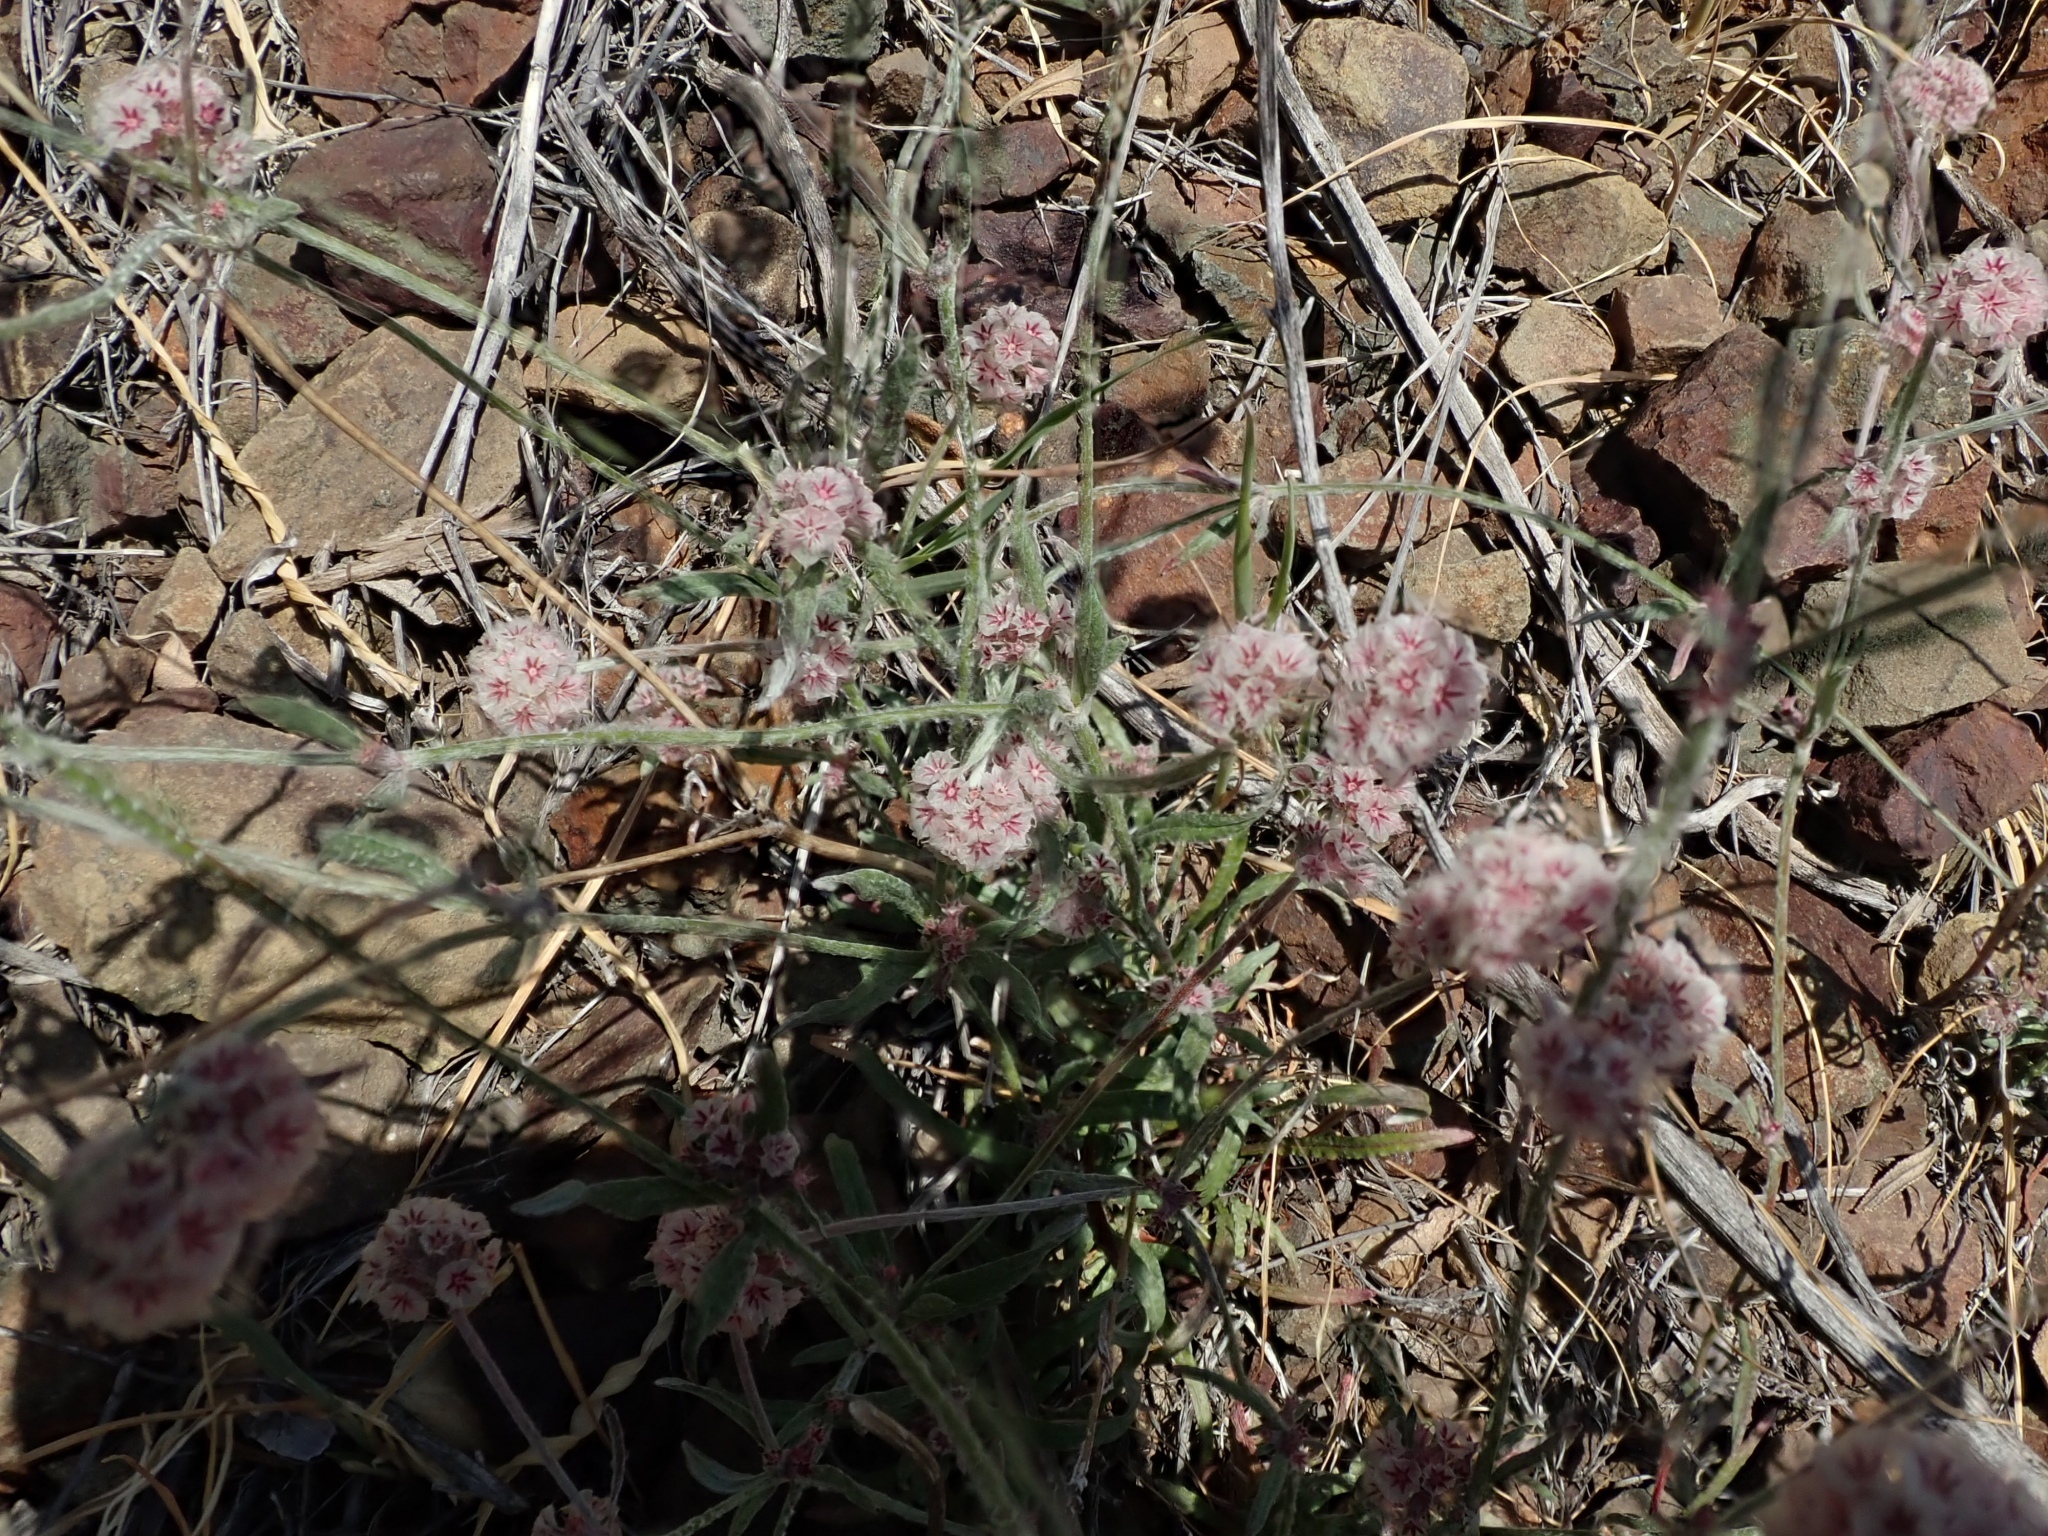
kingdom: Plantae
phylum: Tracheophyta
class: Magnoliopsida
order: Caryophyllales
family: Polygonaceae
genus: Chorizanthe
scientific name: Chorizanthe membranacea
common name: Pink spineflower
